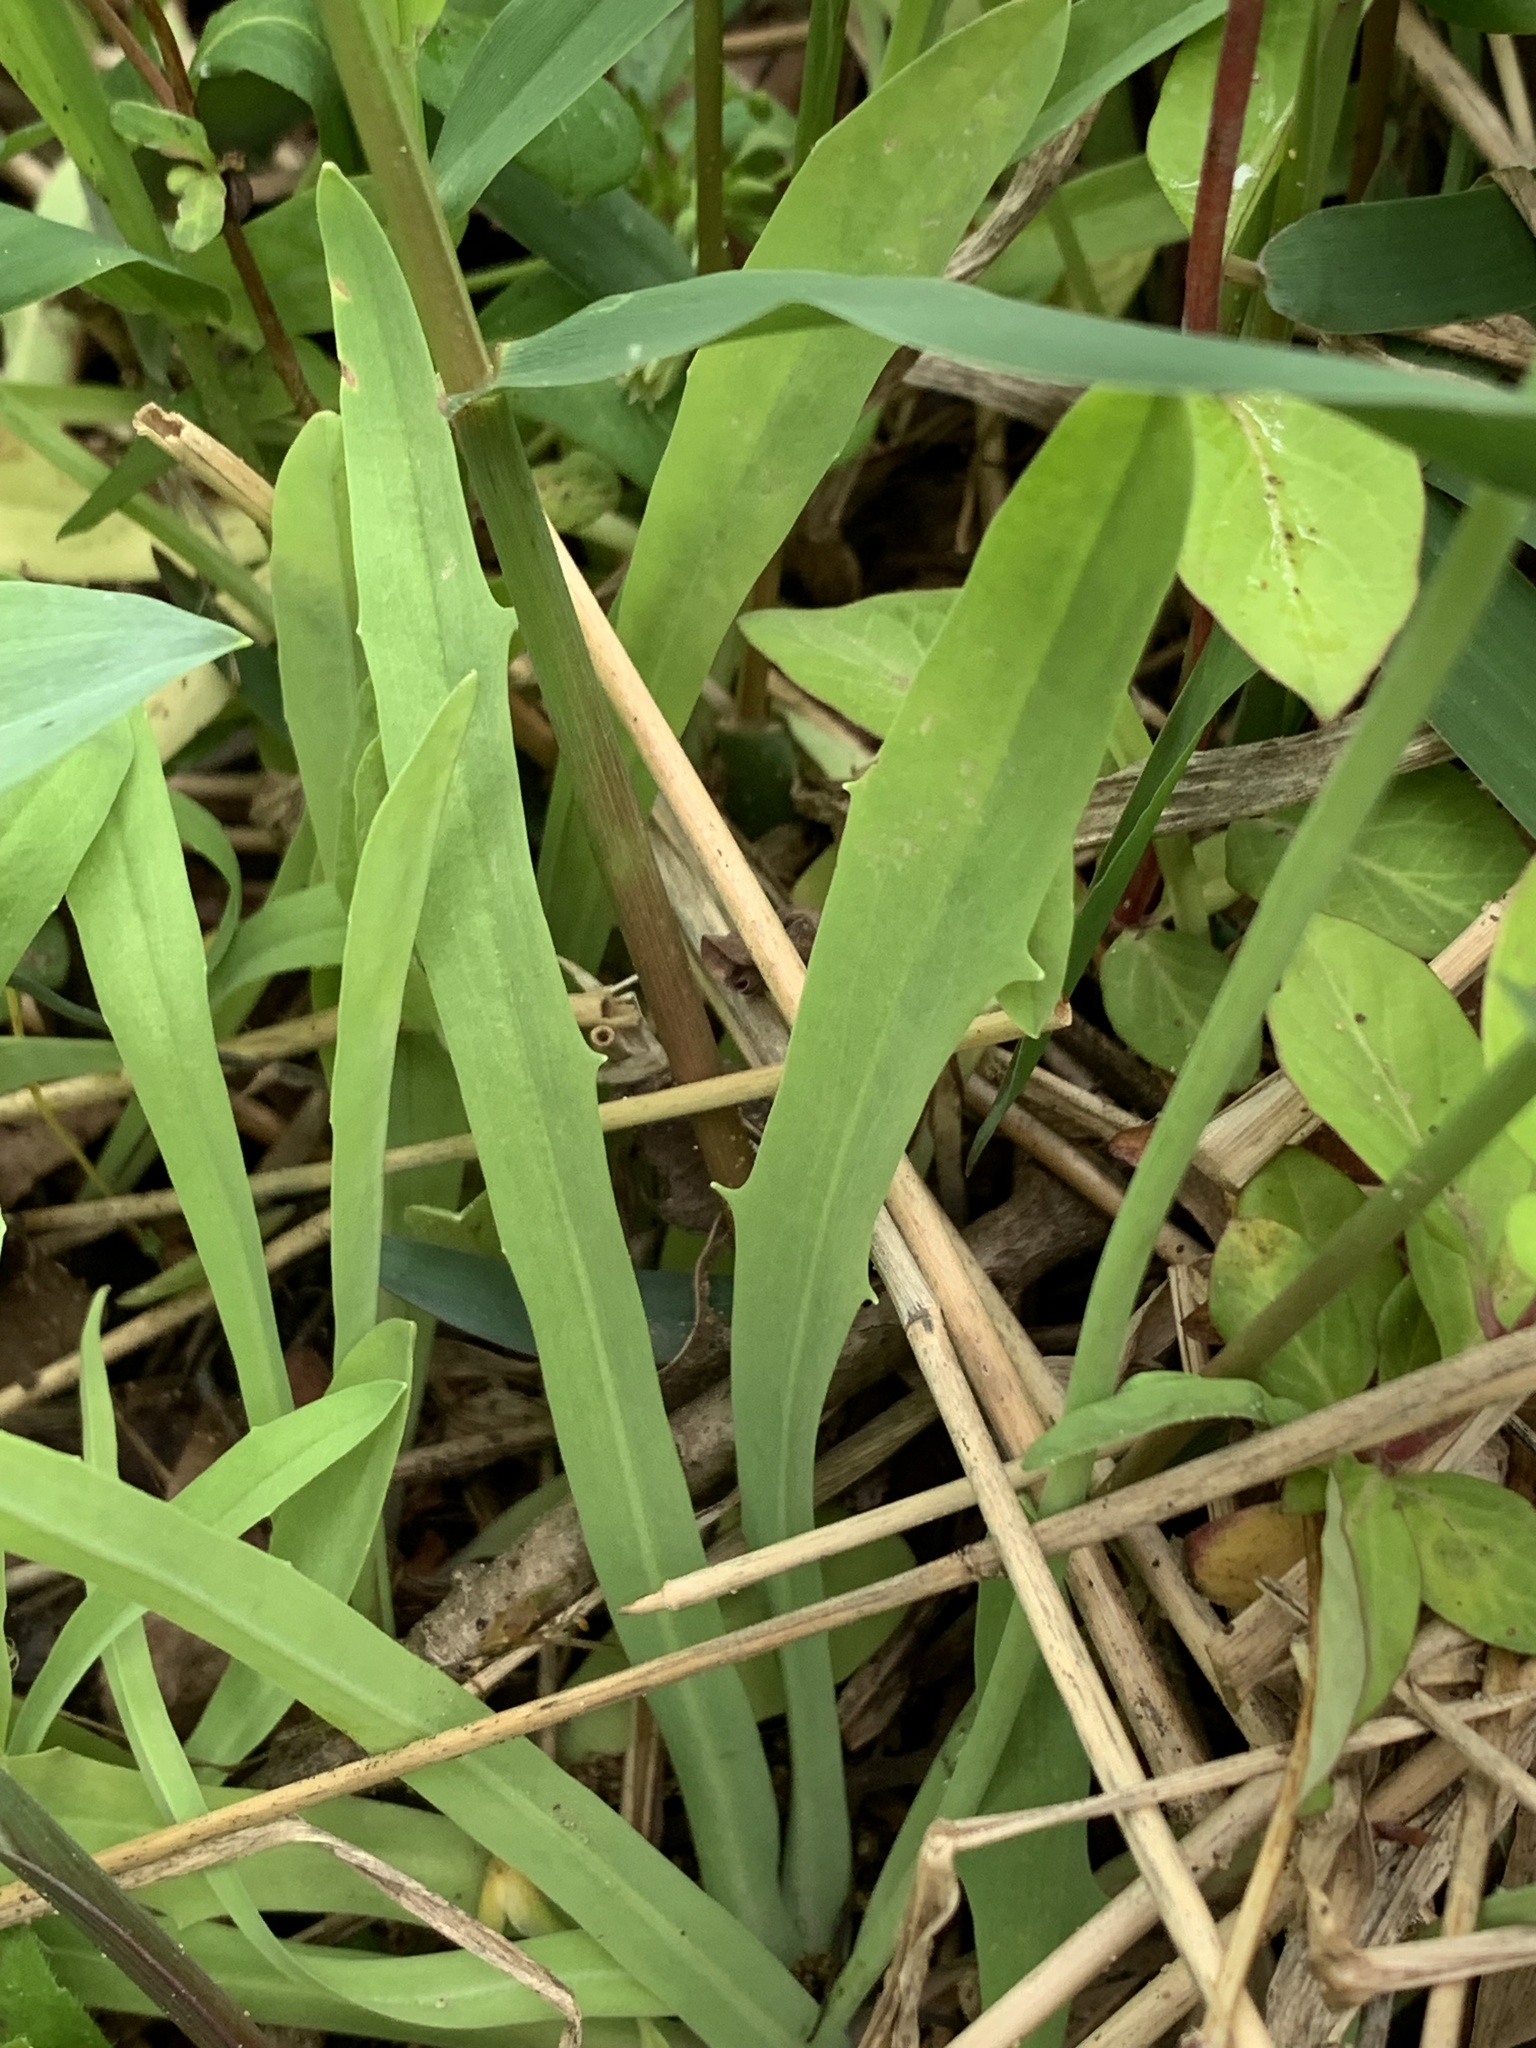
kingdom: Plantae
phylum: Tracheophyta
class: Magnoliopsida
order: Asterales
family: Asteraceae
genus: Krigia
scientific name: Krigia dandelion
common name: Colonial dwarf-dandelion
